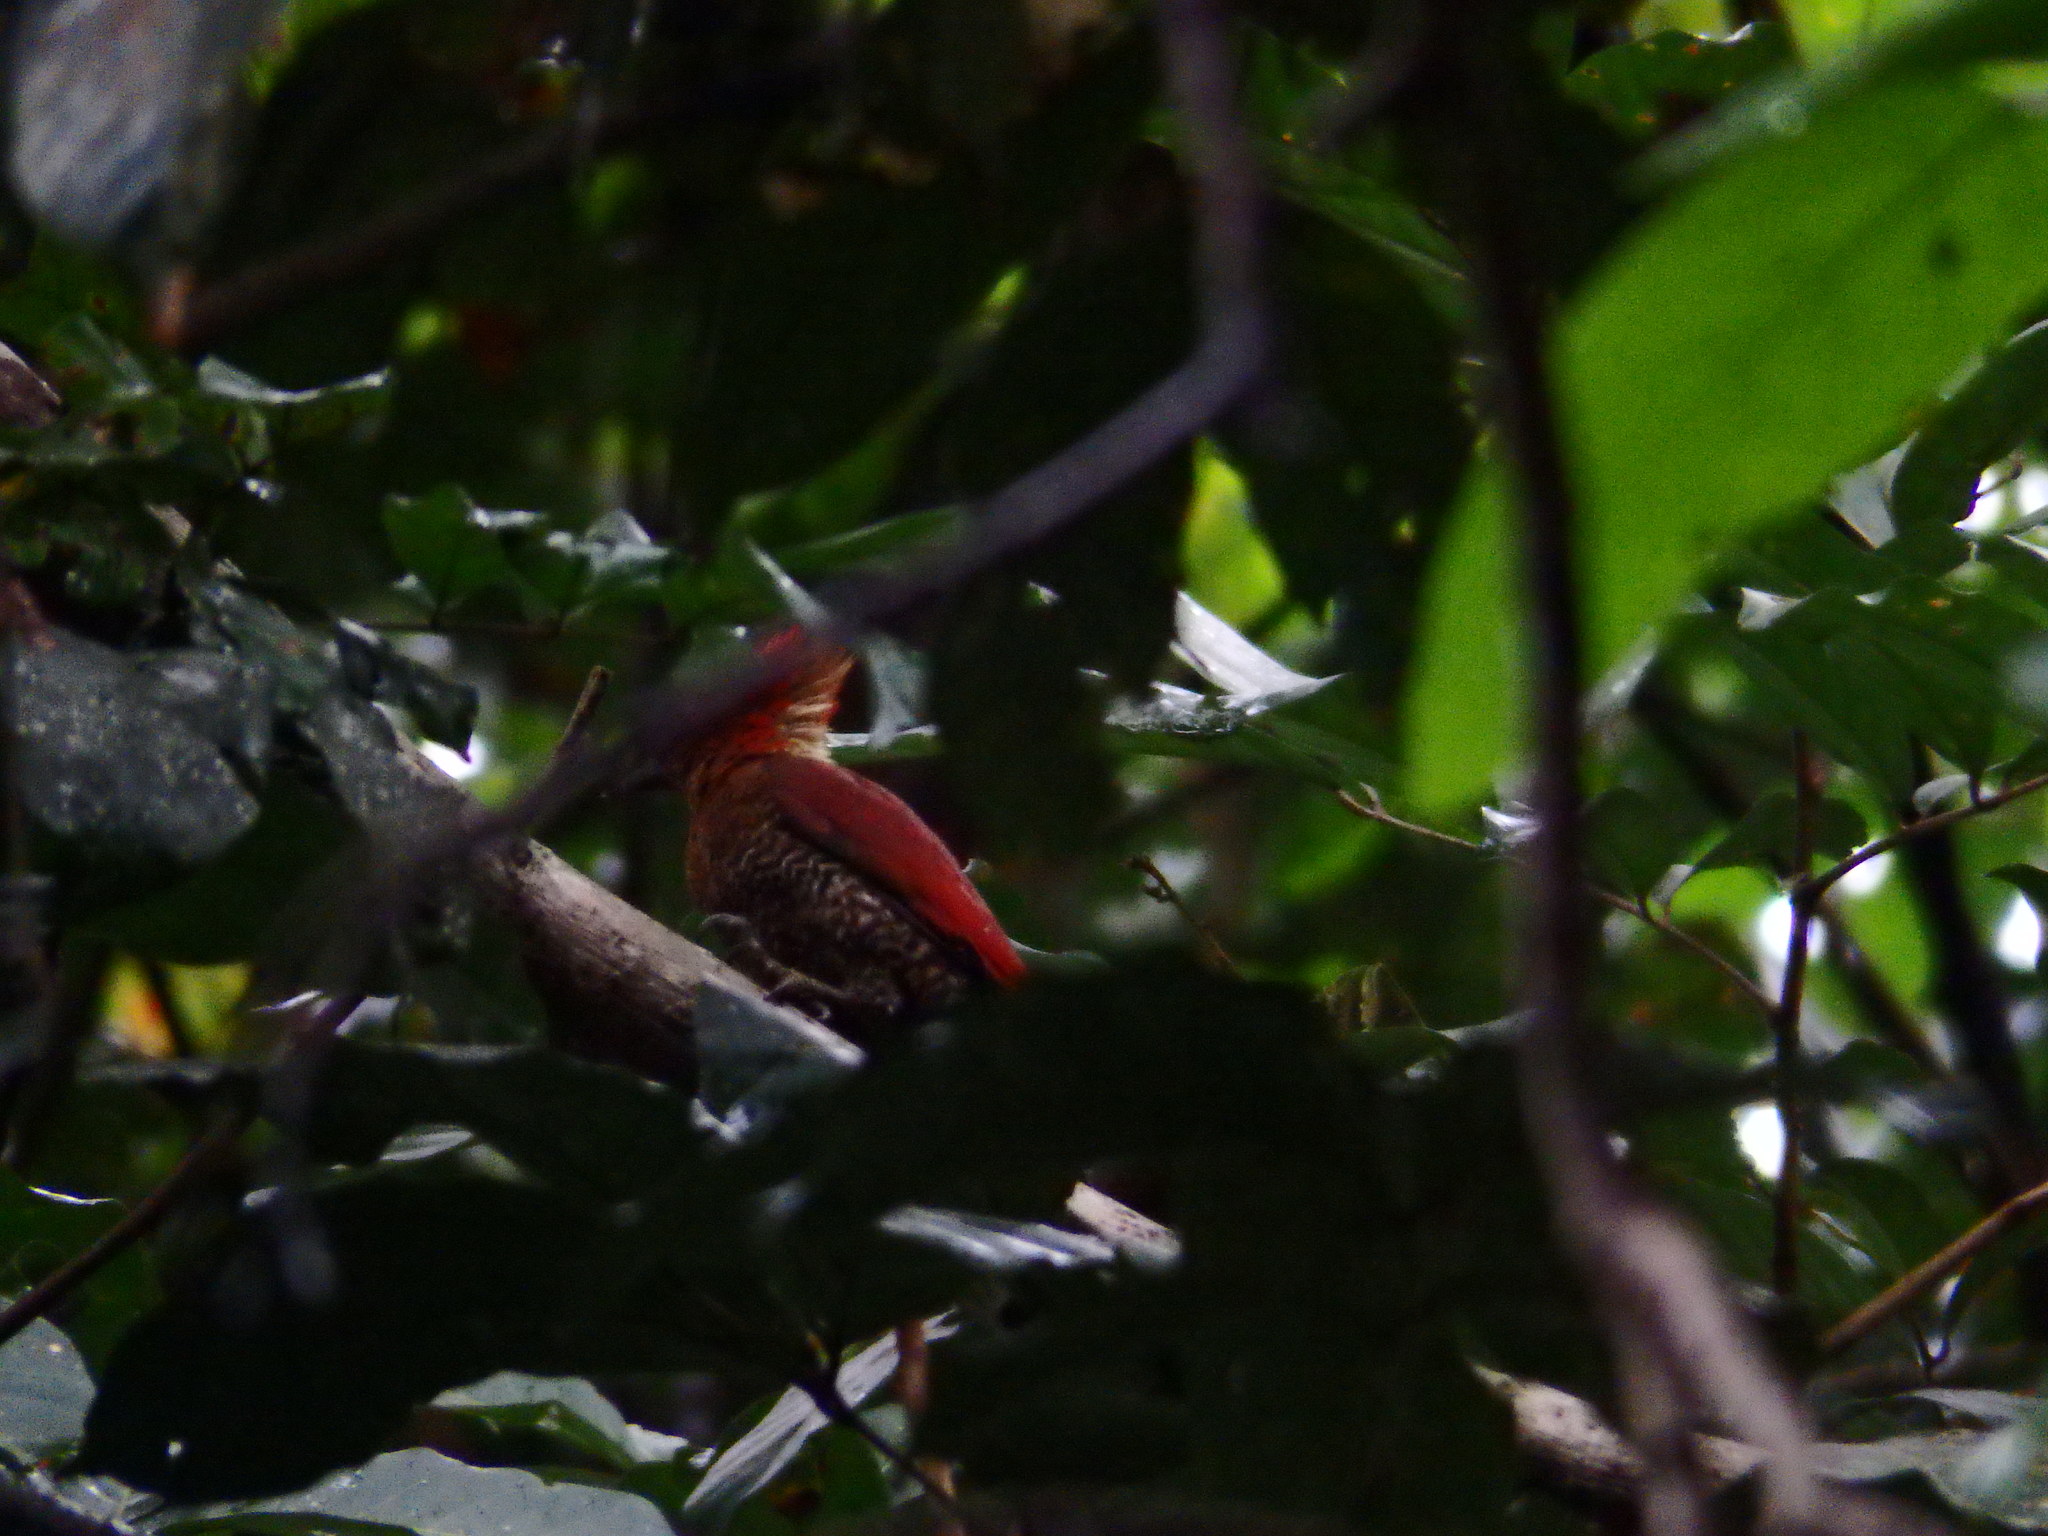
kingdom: Animalia
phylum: Chordata
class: Aves
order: Piciformes
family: Picidae
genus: Chrysophlegma
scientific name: Chrysophlegma miniaceum
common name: Banded woodpecker
